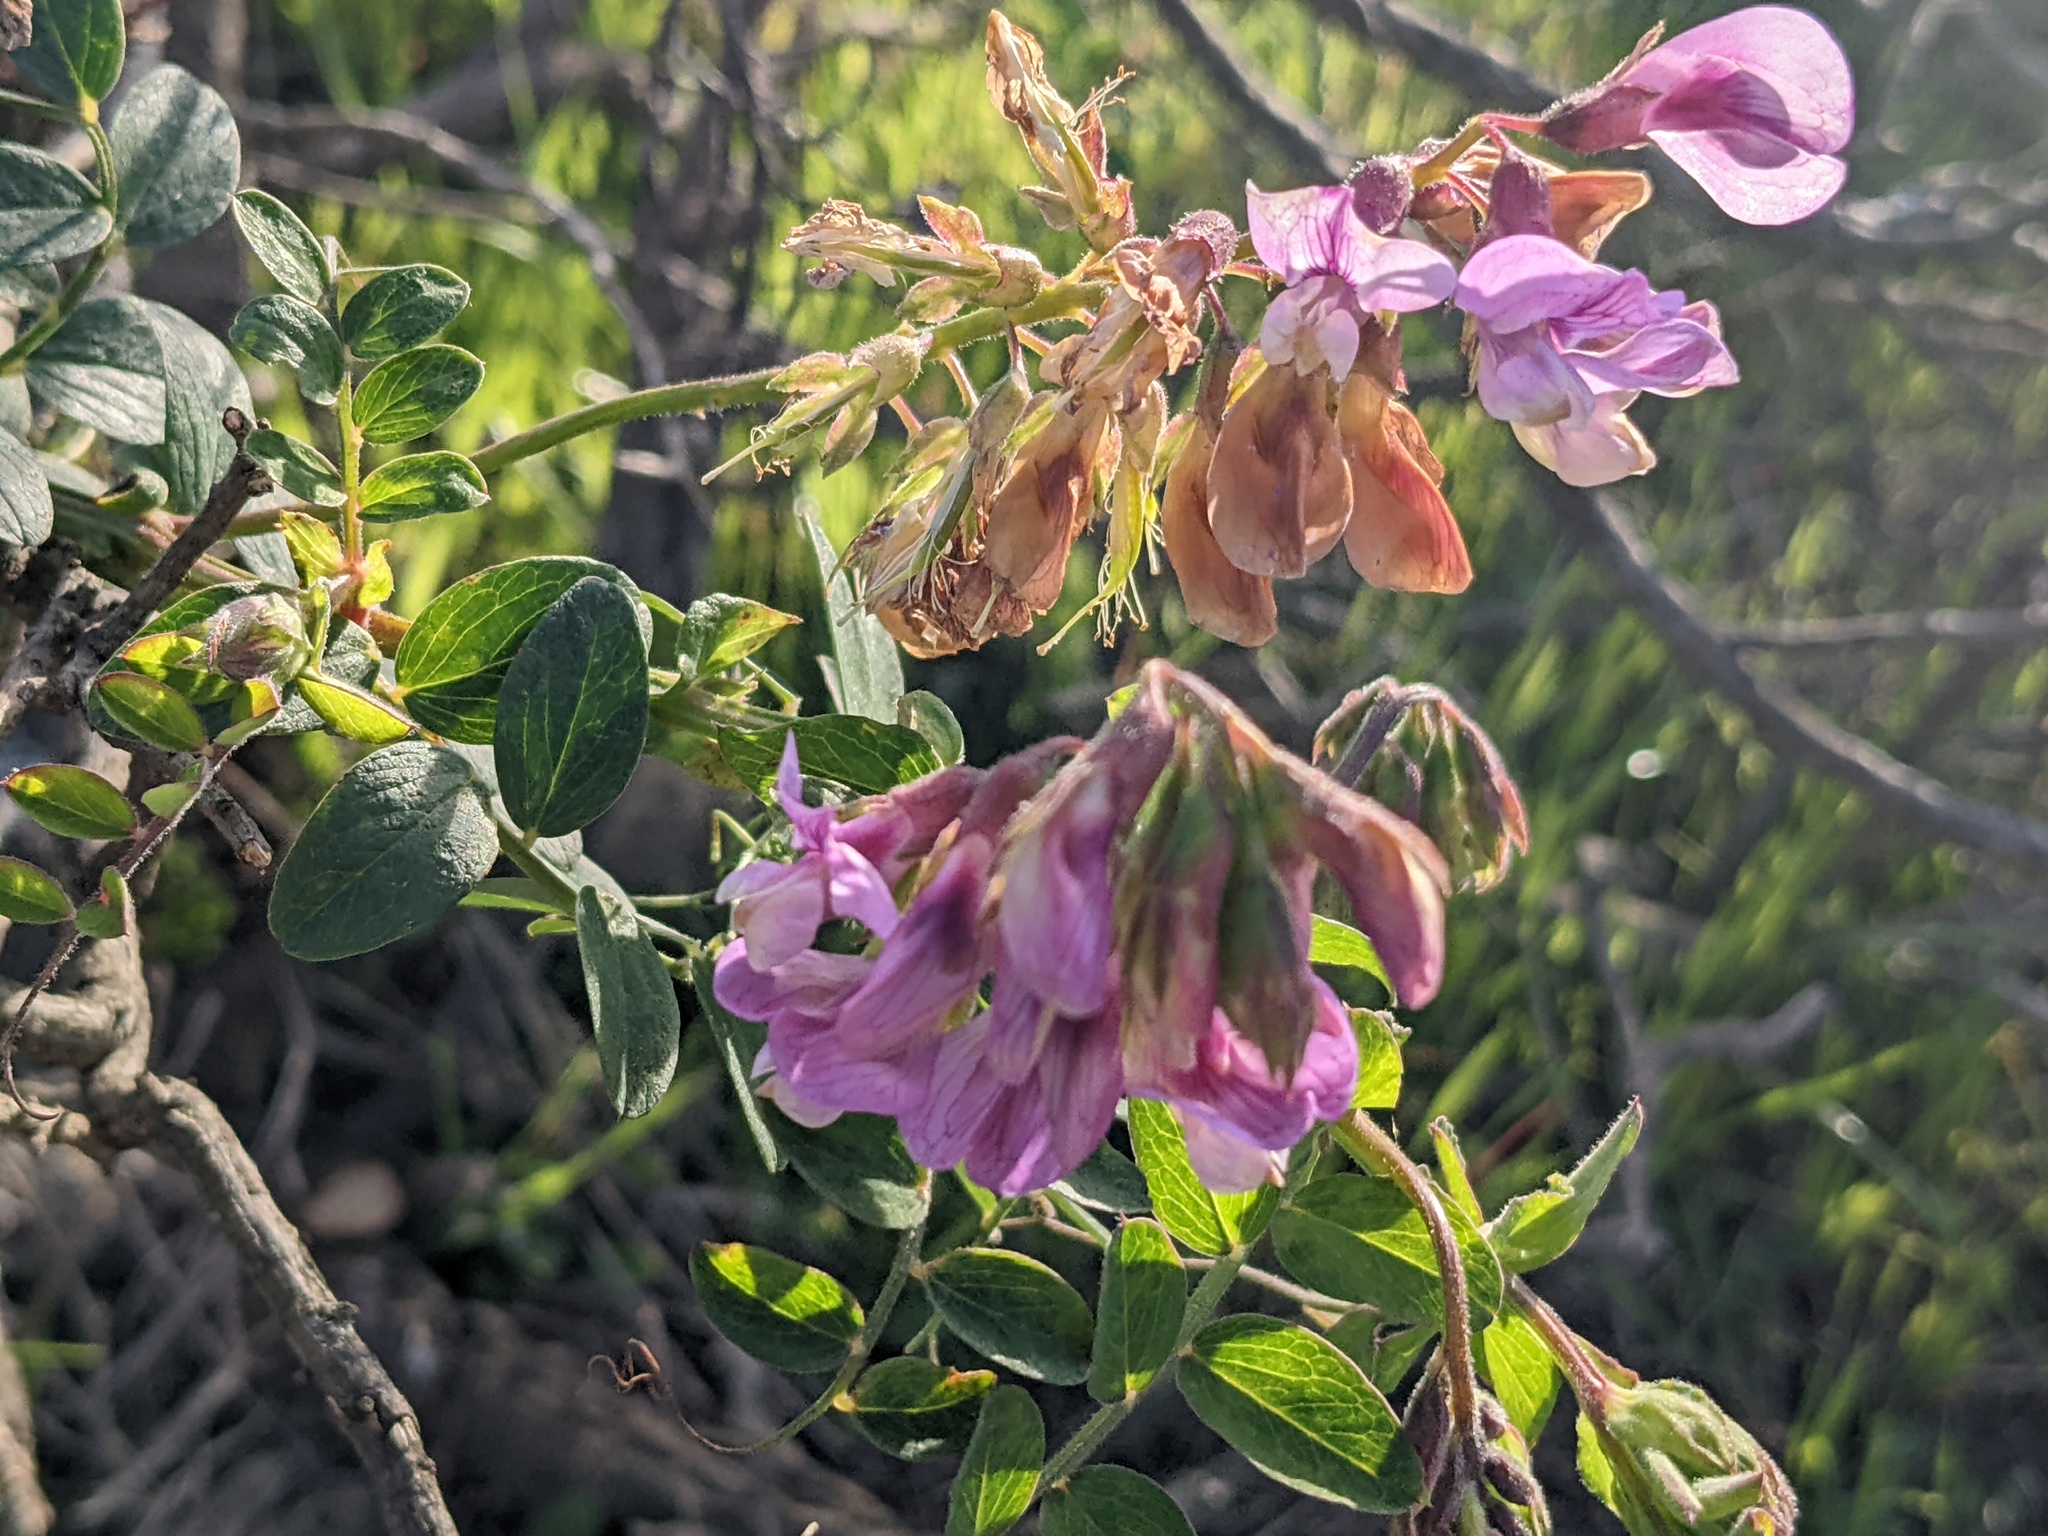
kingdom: Plantae
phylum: Tracheophyta
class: Magnoliopsida
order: Fabales
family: Fabaceae
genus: Lathyrus
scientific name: Lathyrus vestitus
